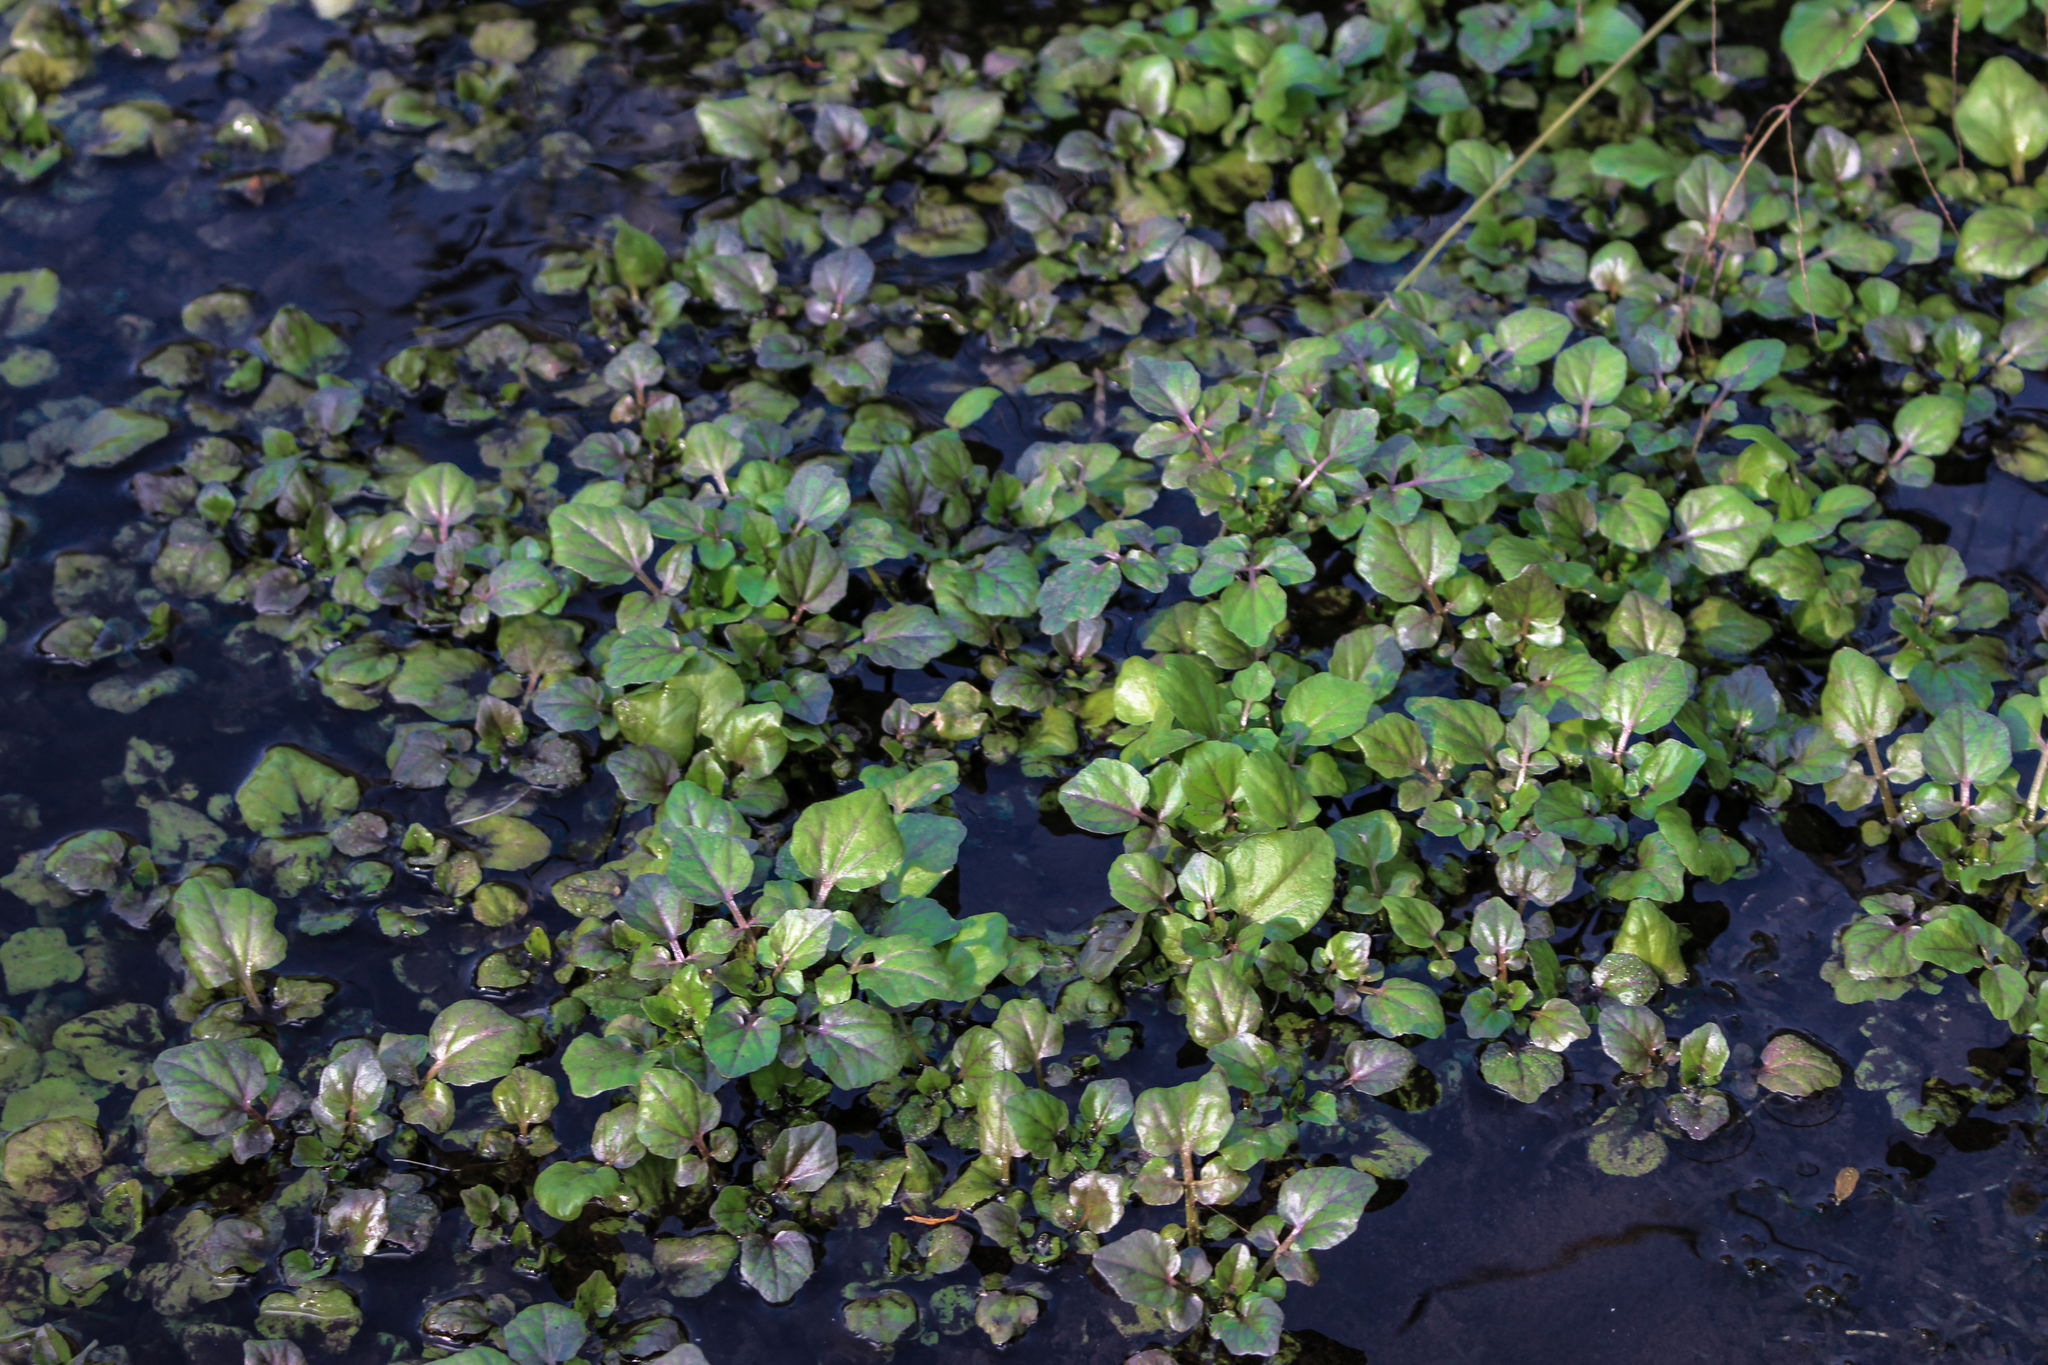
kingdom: Plantae
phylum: Tracheophyta
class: Magnoliopsida
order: Brassicales
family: Brassicaceae
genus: Nasturtium
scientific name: Nasturtium officinale
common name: Watercress
